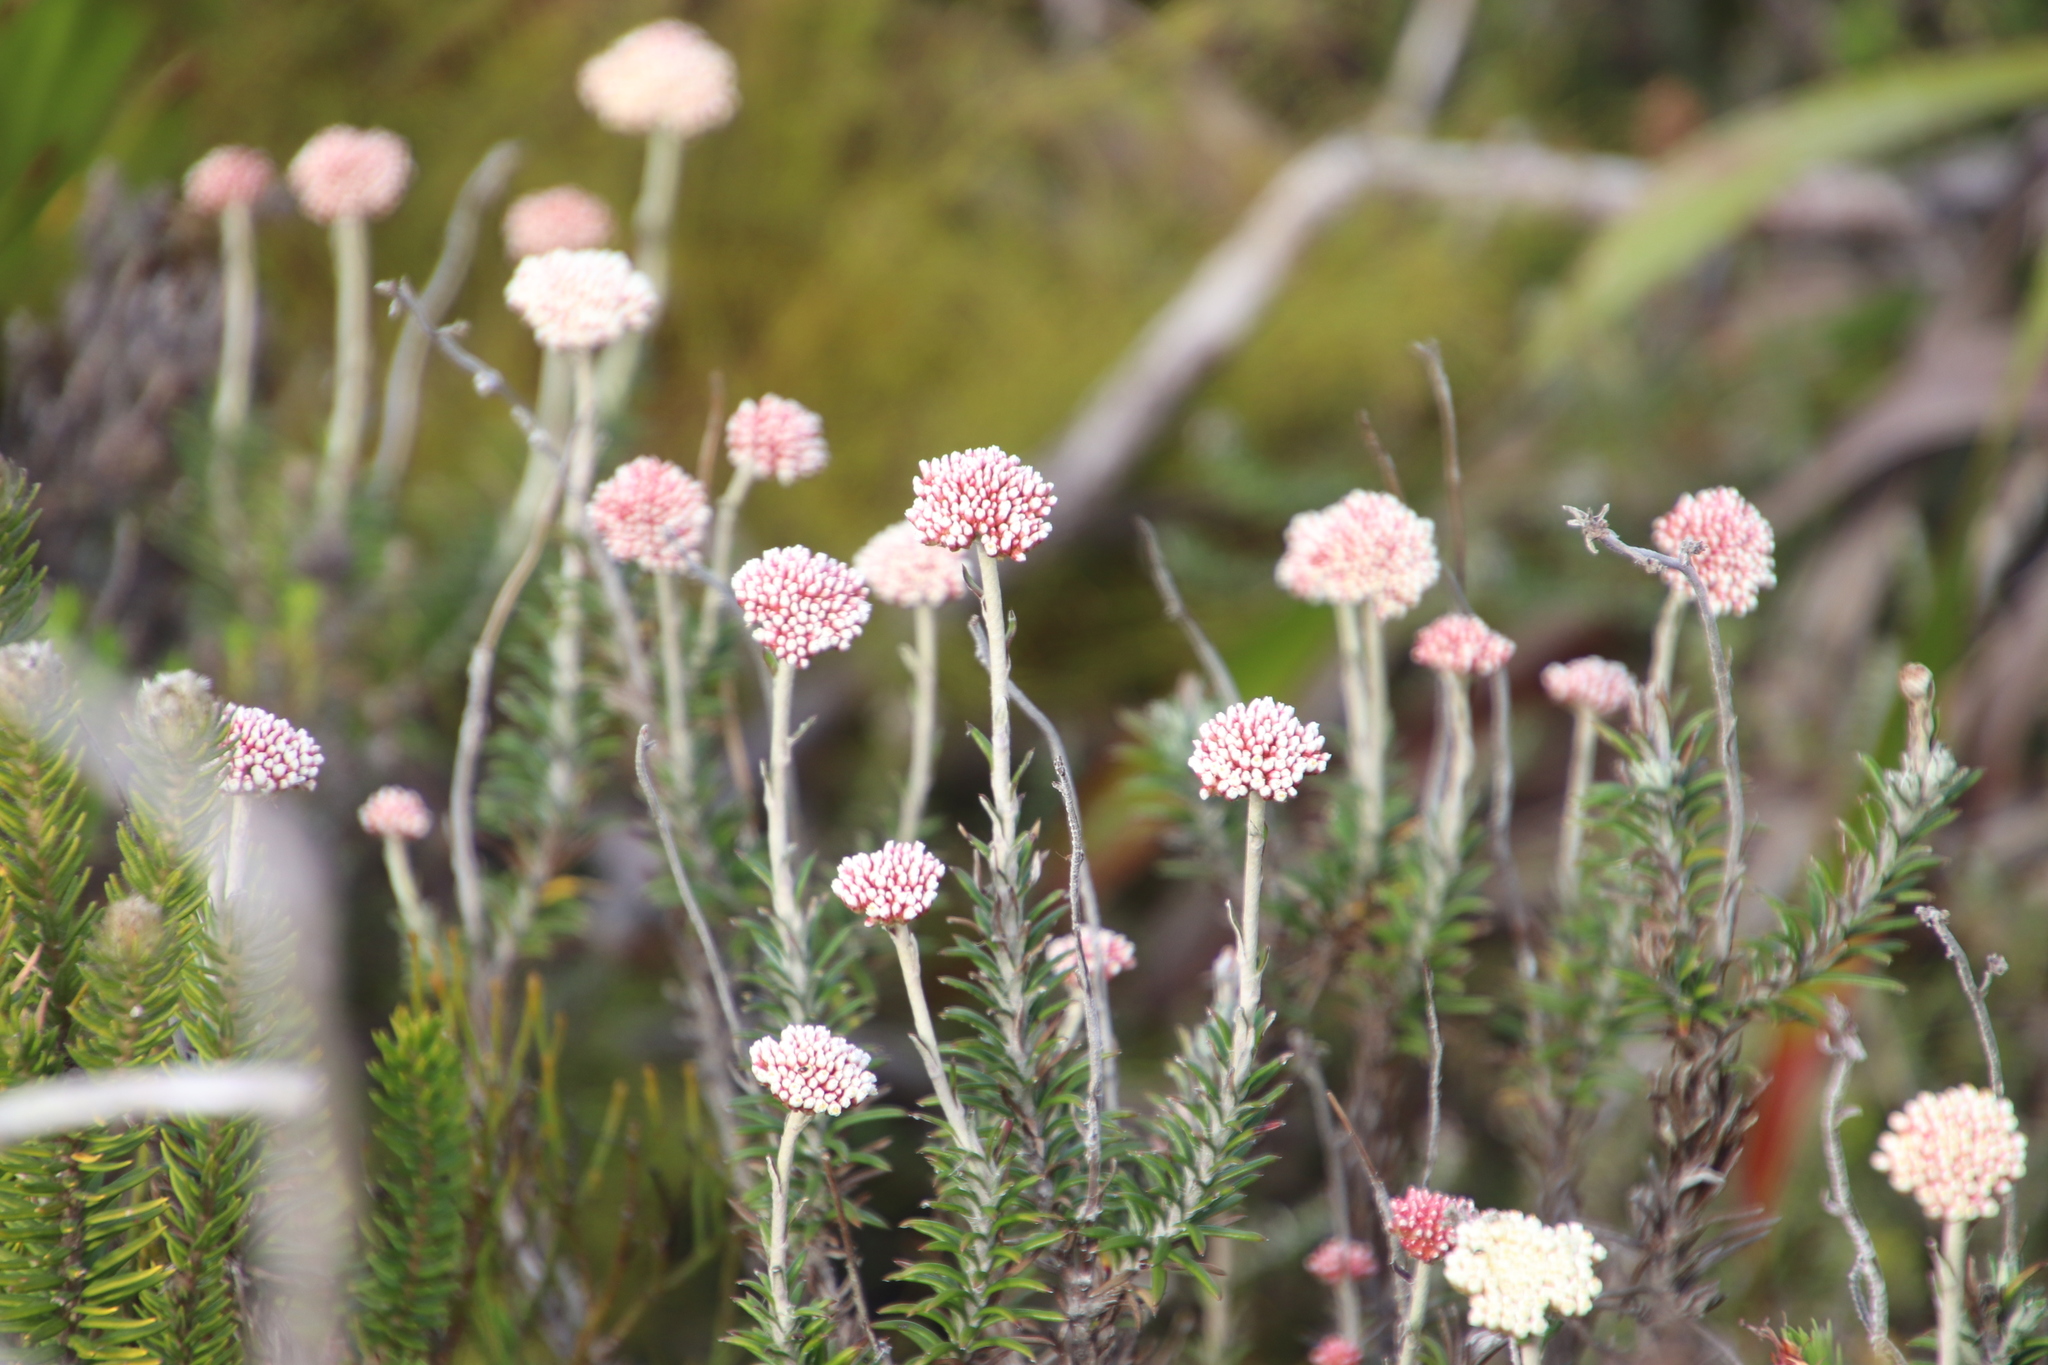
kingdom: Plantae
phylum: Tracheophyta
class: Magnoliopsida
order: Asterales
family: Asteraceae
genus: Anaxeton
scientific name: Anaxeton arborescens
